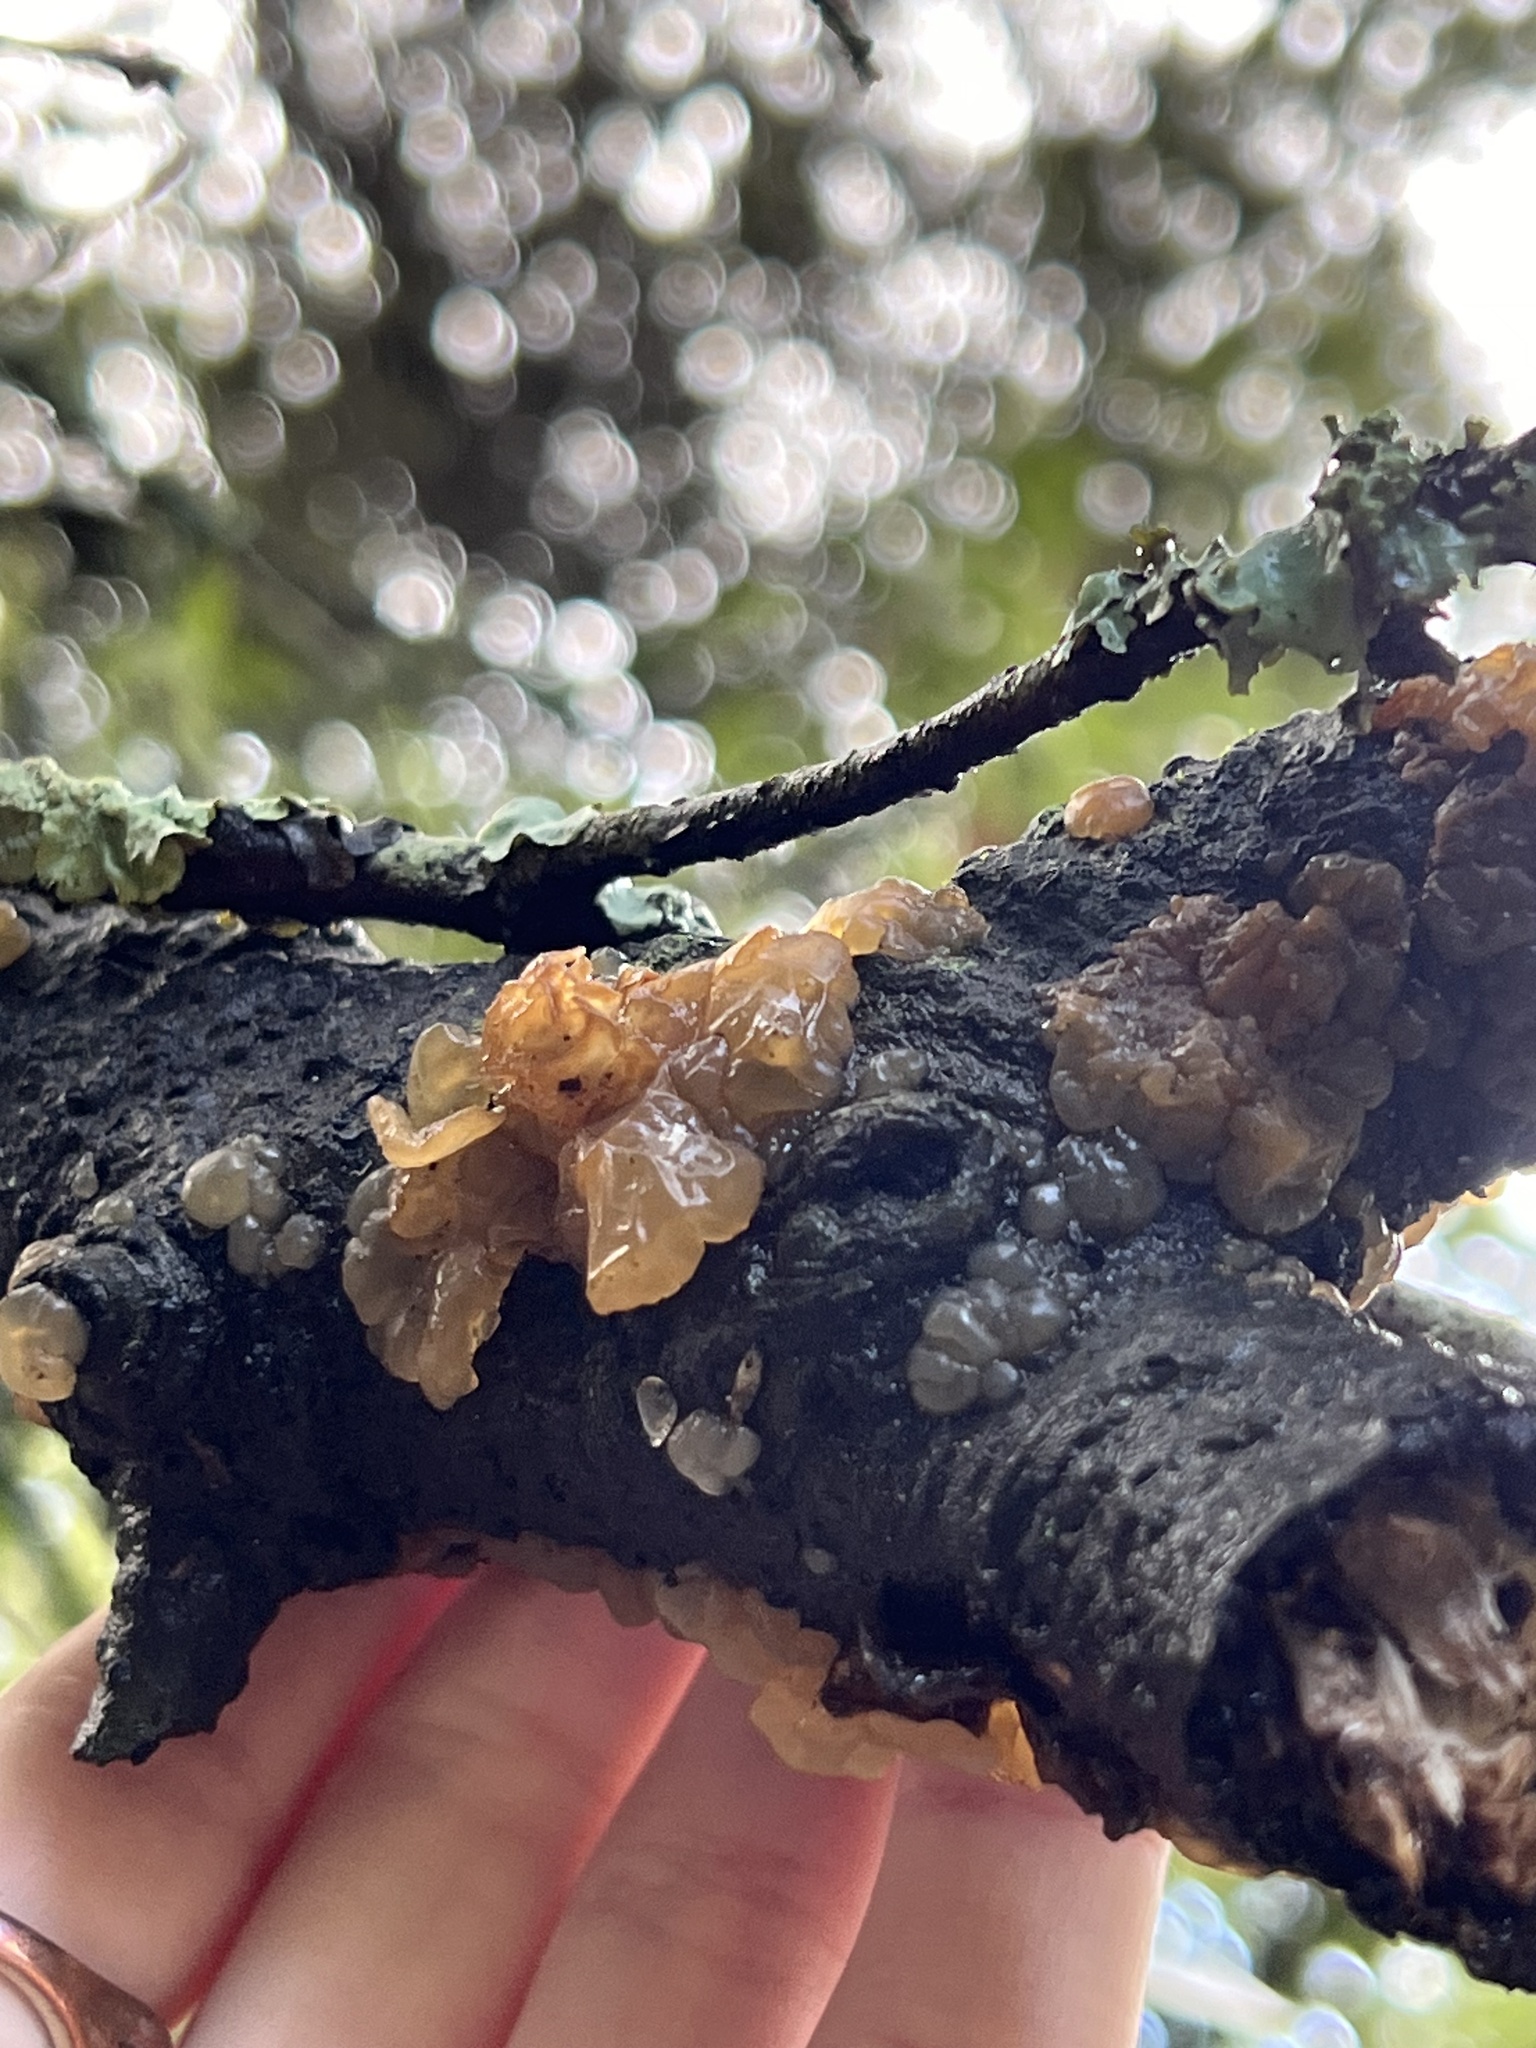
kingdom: Fungi
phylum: Basidiomycota
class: Agaricomycetes
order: Auriculariales
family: Hyaloriaceae
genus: Myxarium
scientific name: Myxarium nucleatum
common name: Crystal brain fungus
